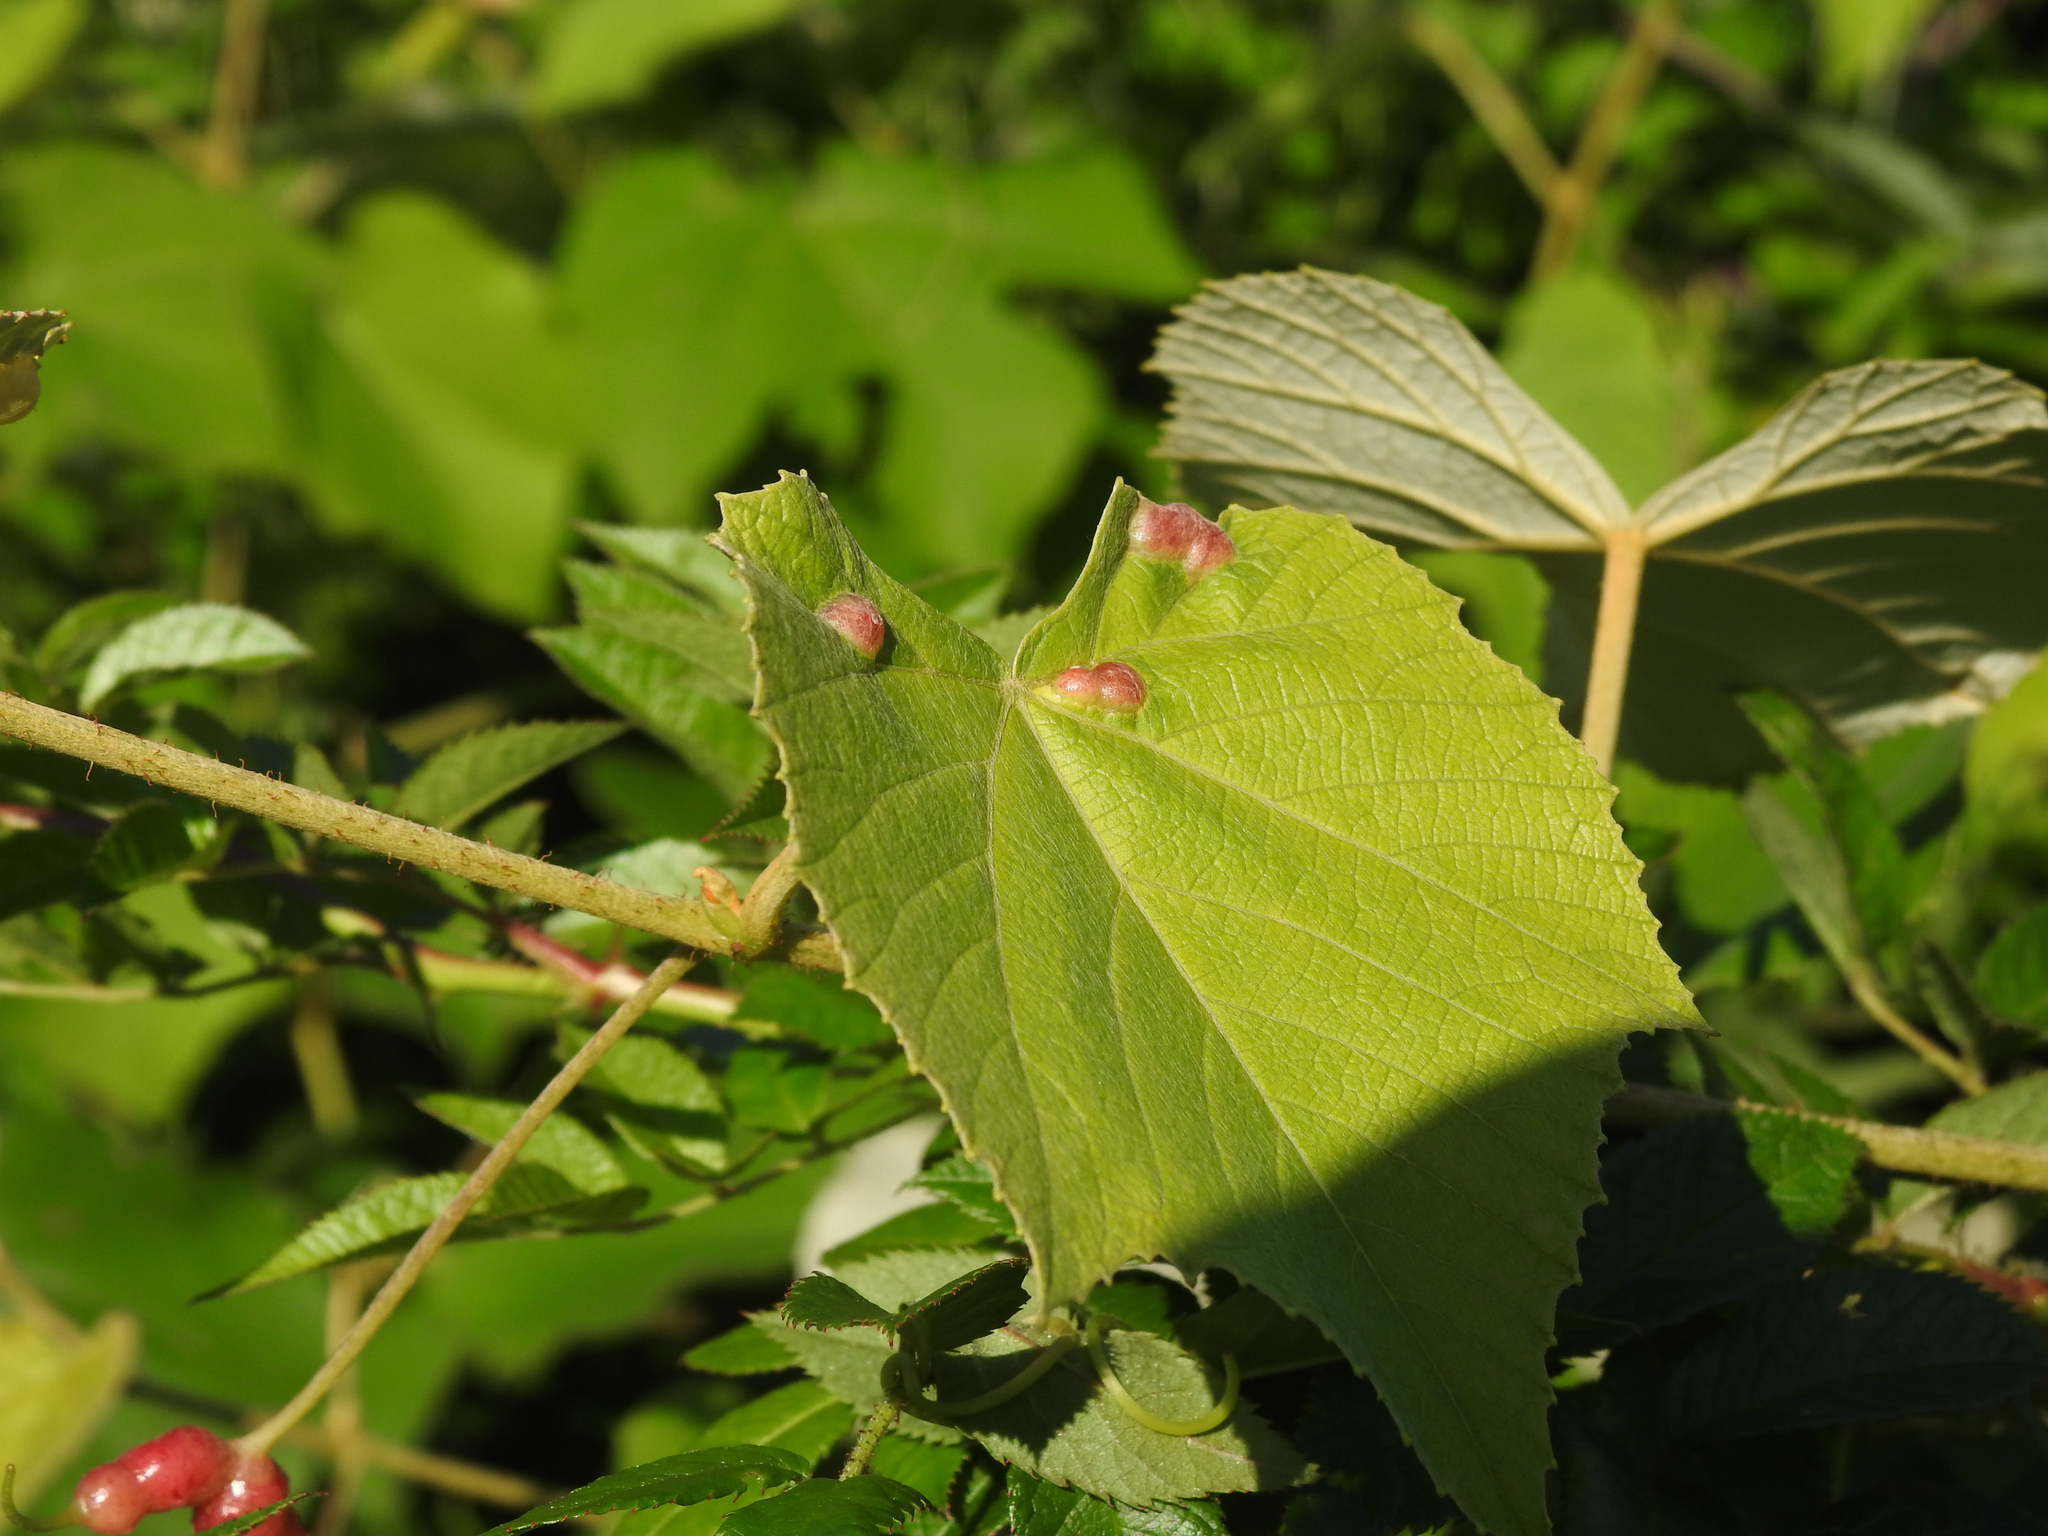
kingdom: Animalia
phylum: Arthropoda
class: Insecta
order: Diptera
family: Cecidomyiidae
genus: Vitisiella
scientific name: Vitisiella brevicauda
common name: Grape tumid gallmaker midge
